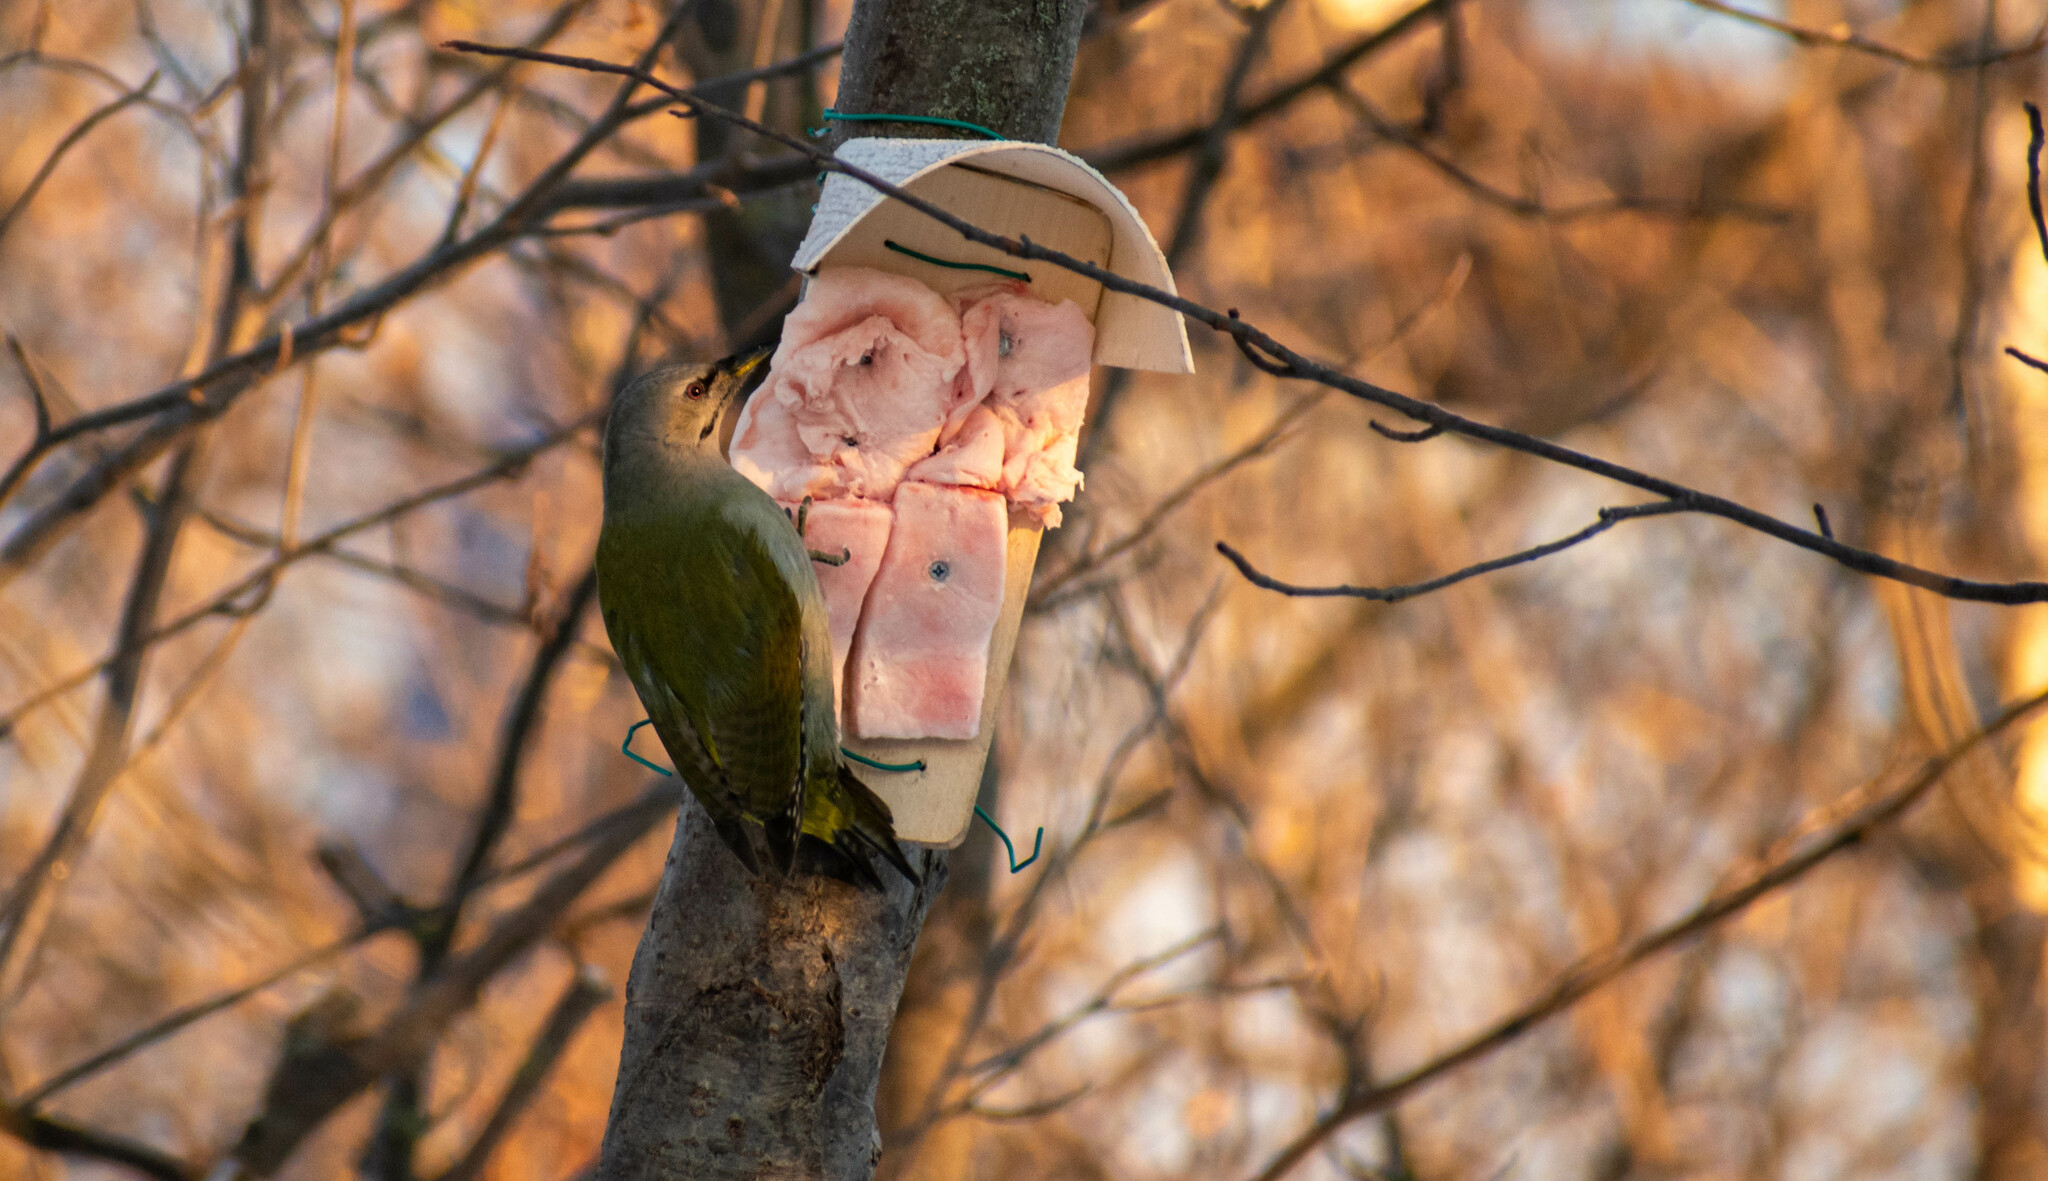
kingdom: Animalia
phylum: Chordata
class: Aves
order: Piciformes
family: Picidae
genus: Picus
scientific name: Picus canus
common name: Grey-headed woodpecker
